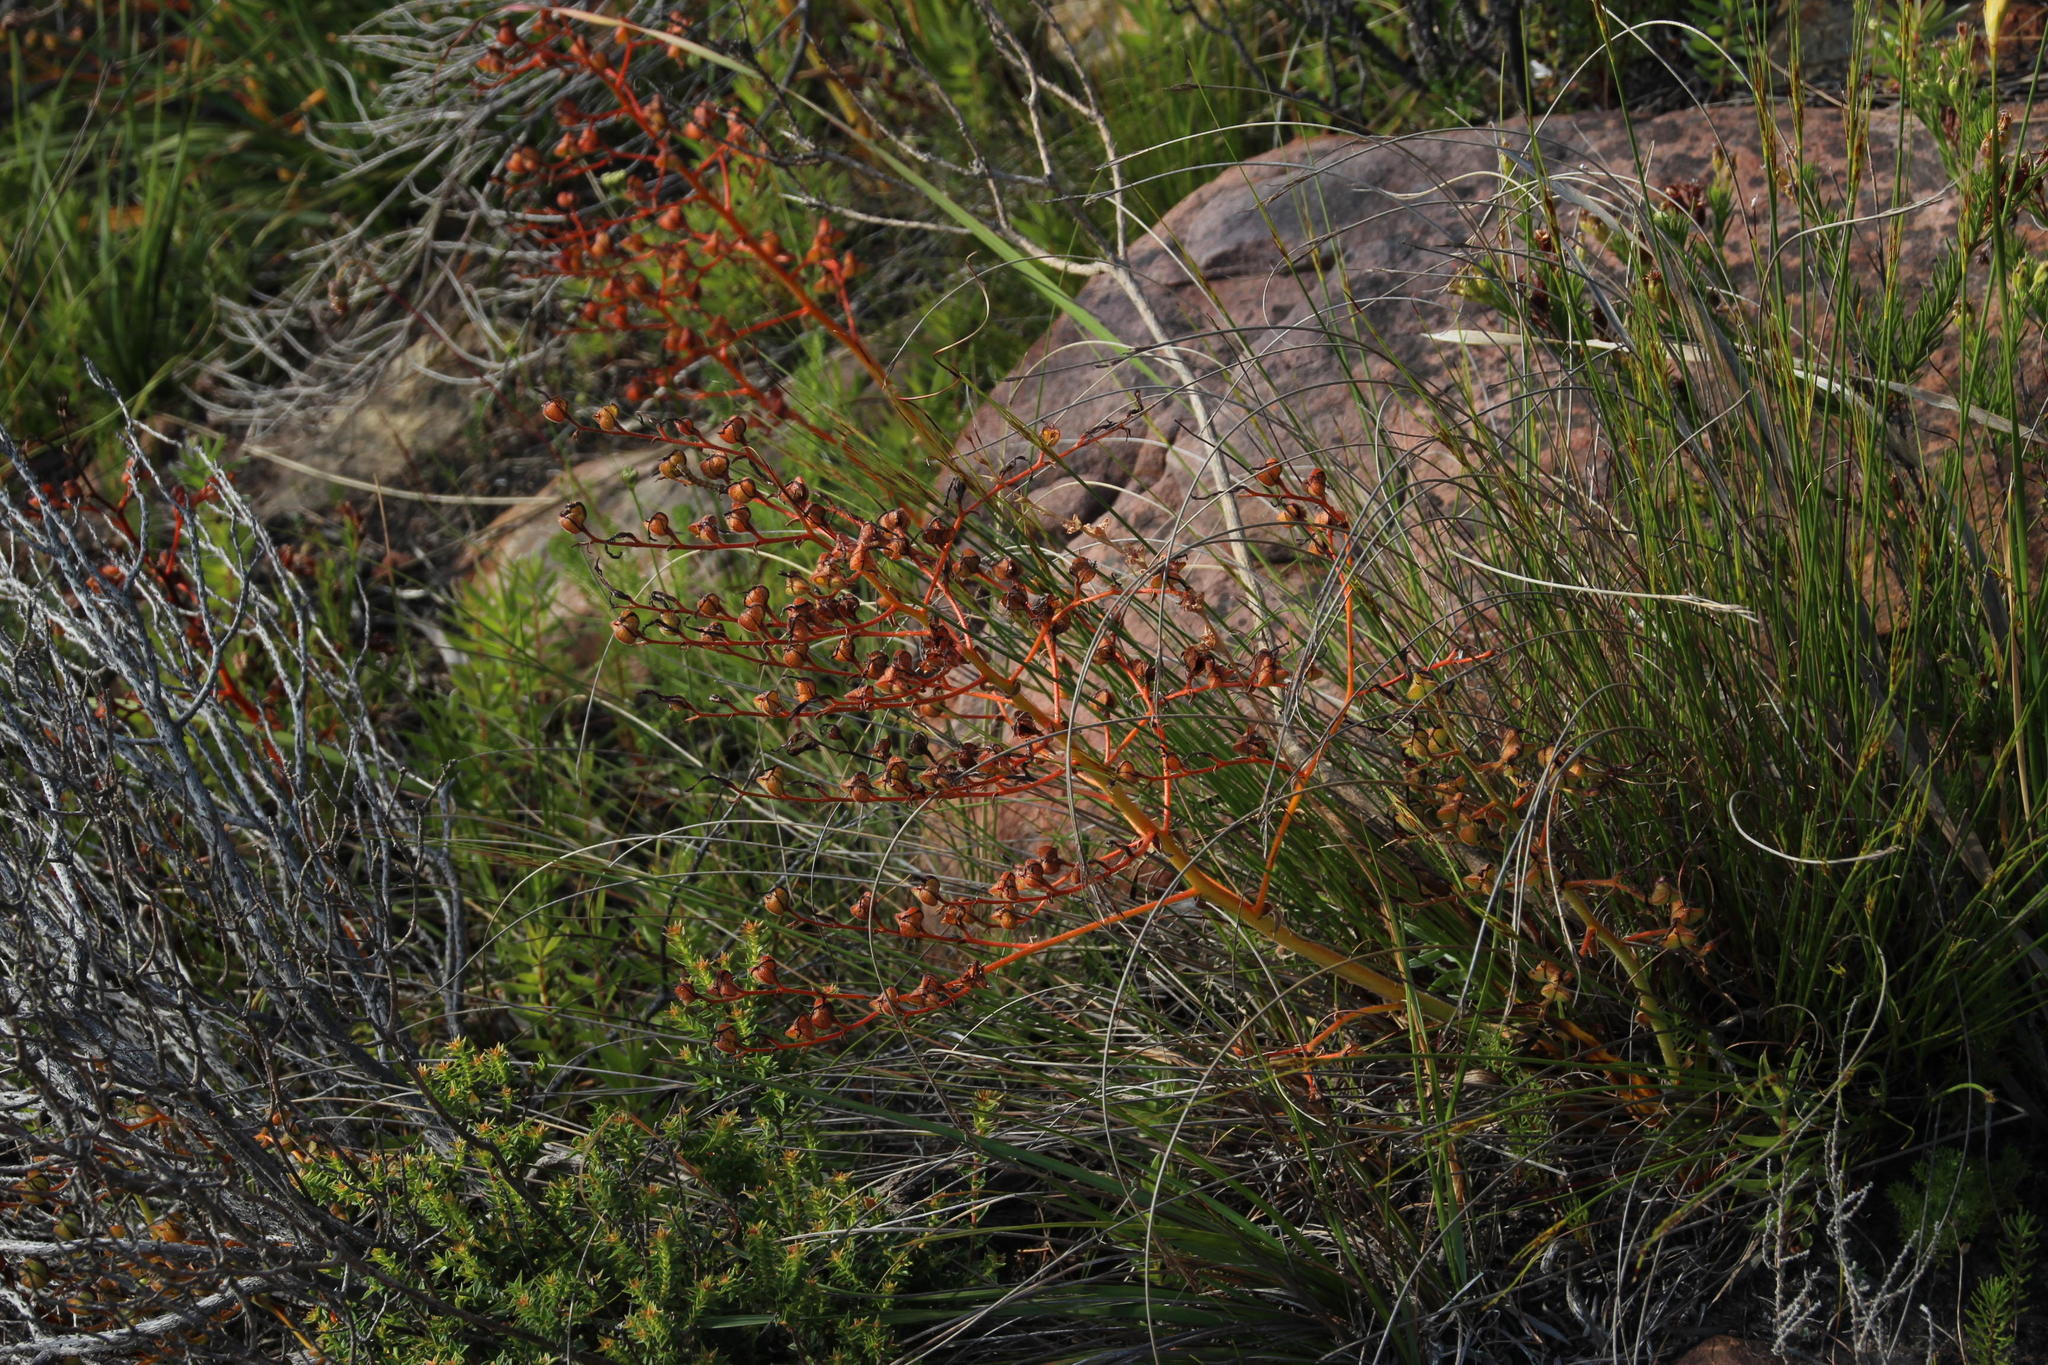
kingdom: Plantae
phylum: Tracheophyta
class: Liliopsida
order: Commelinales
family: Haemodoraceae
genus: Wachendorfia
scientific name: Wachendorfia paniculata
